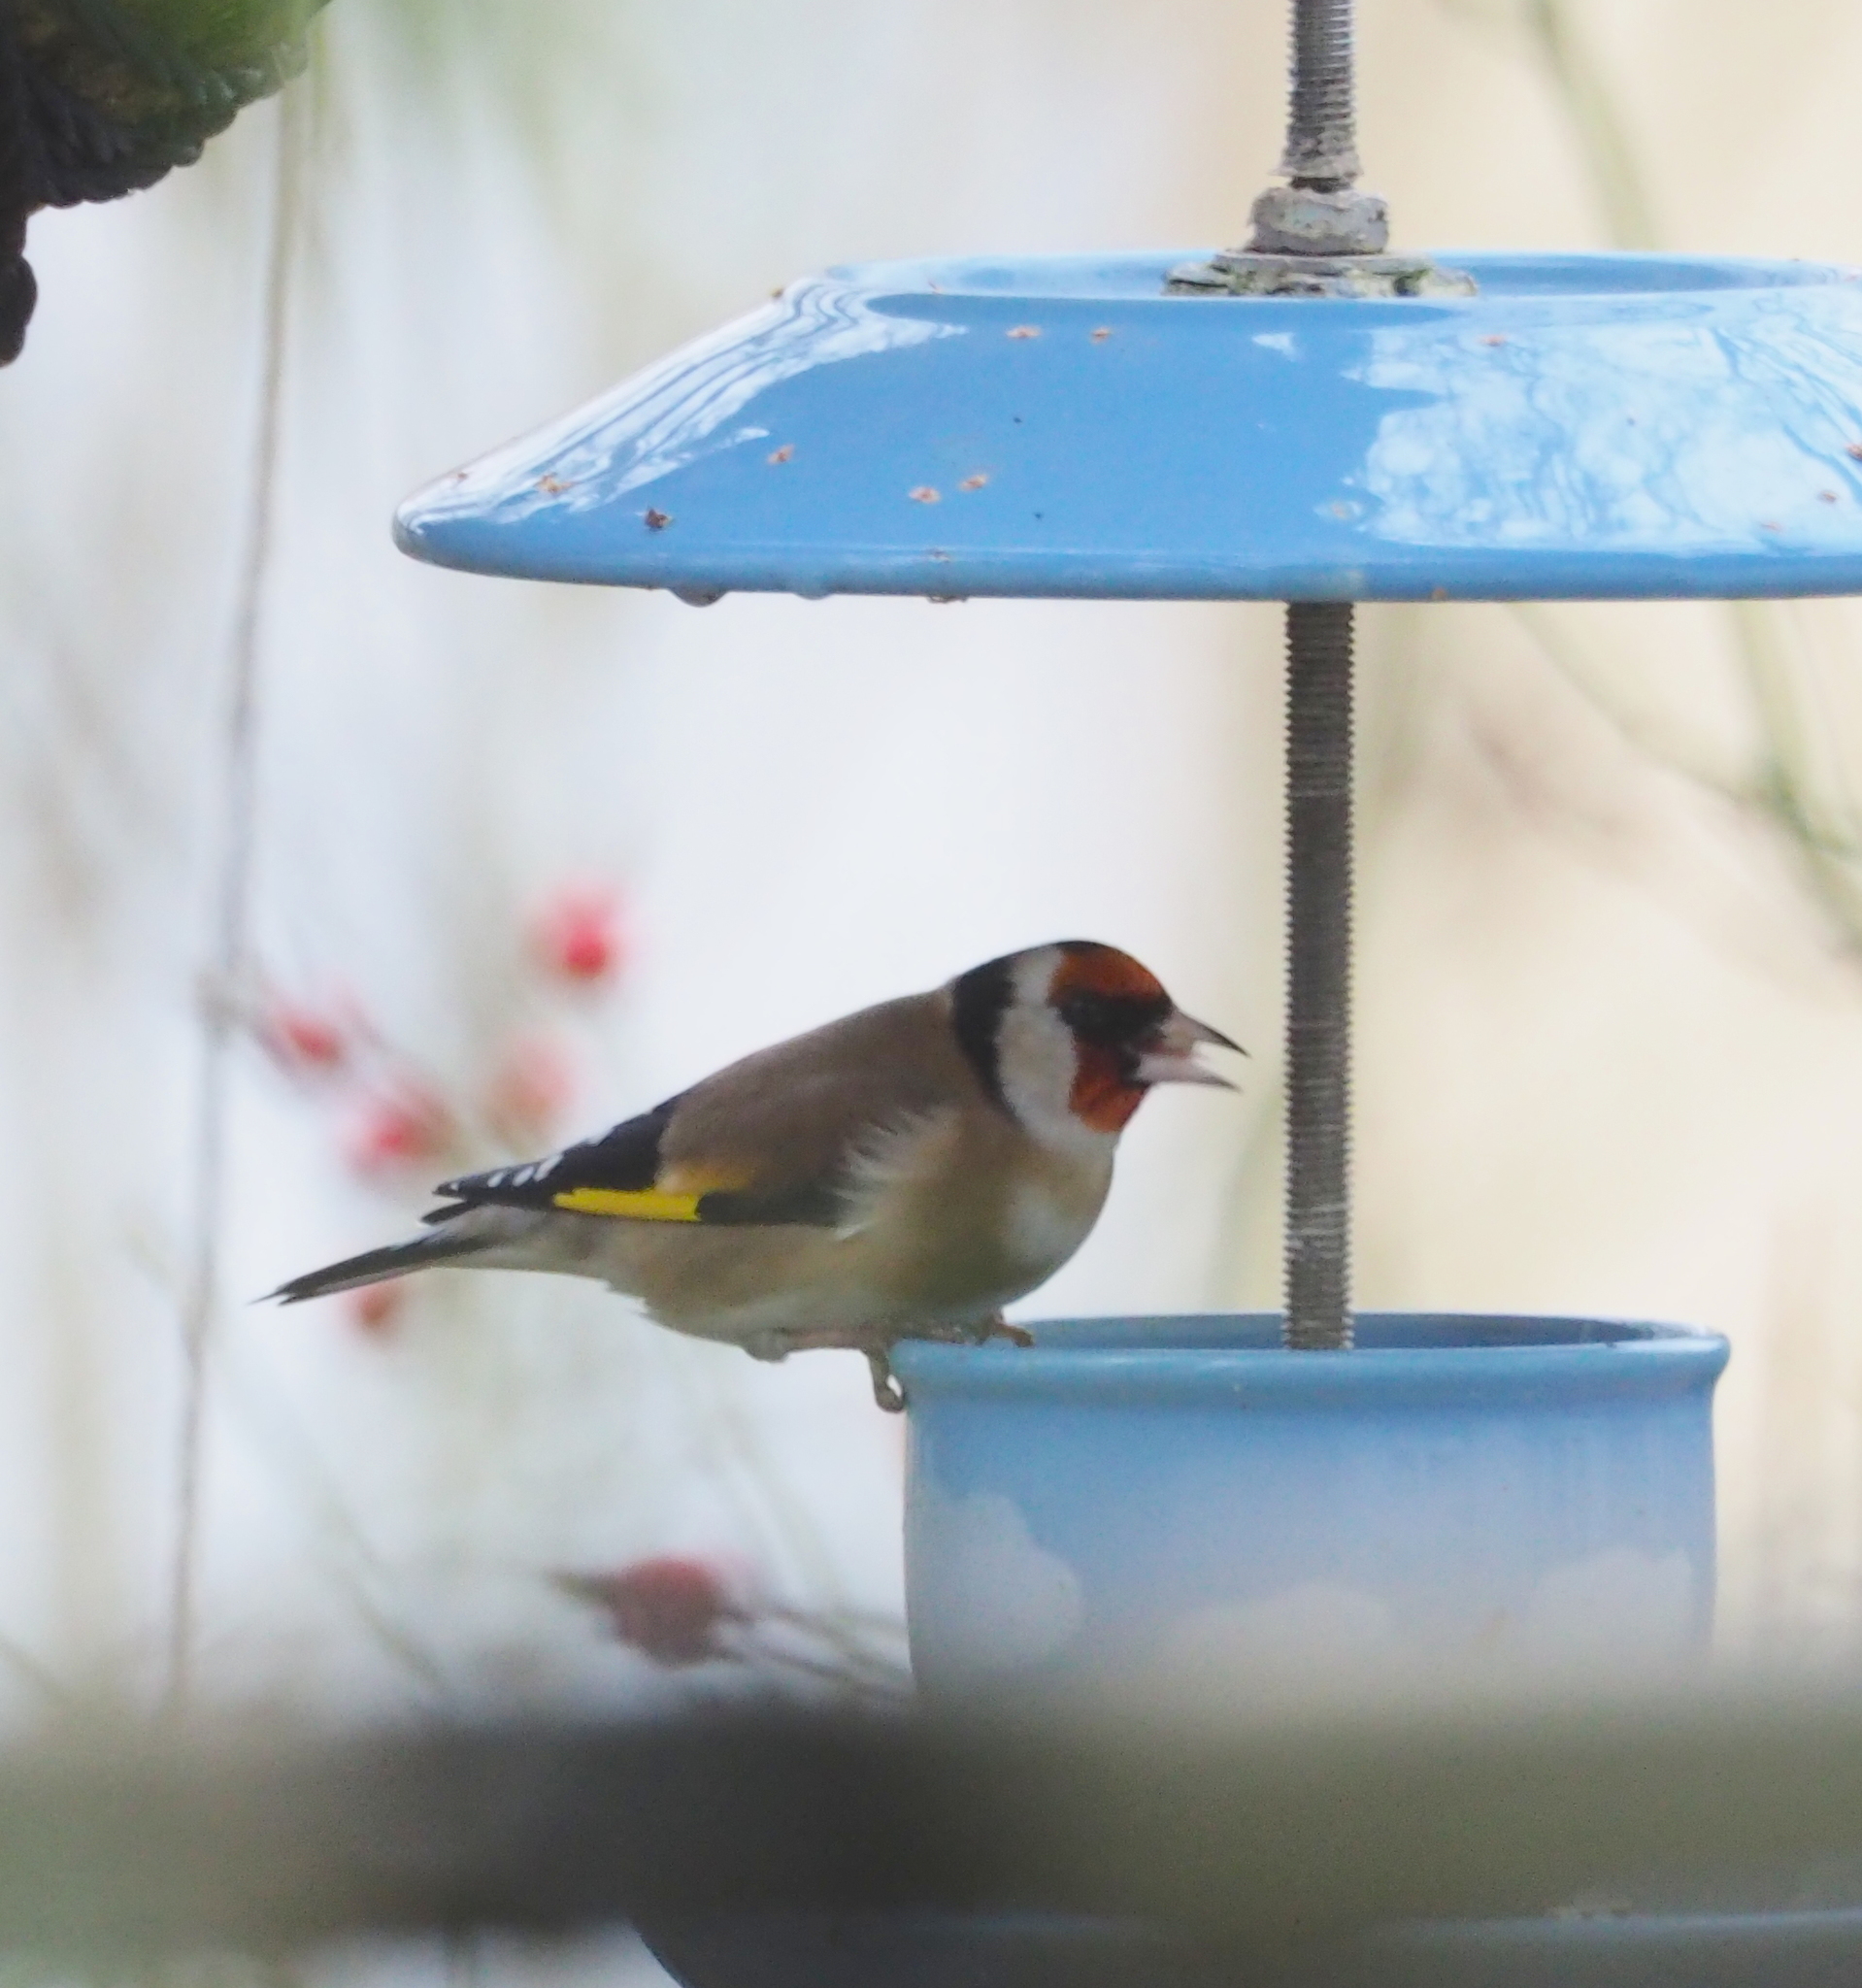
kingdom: Animalia
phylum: Chordata
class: Aves
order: Passeriformes
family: Fringillidae
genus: Carduelis
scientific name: Carduelis carduelis
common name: European goldfinch
